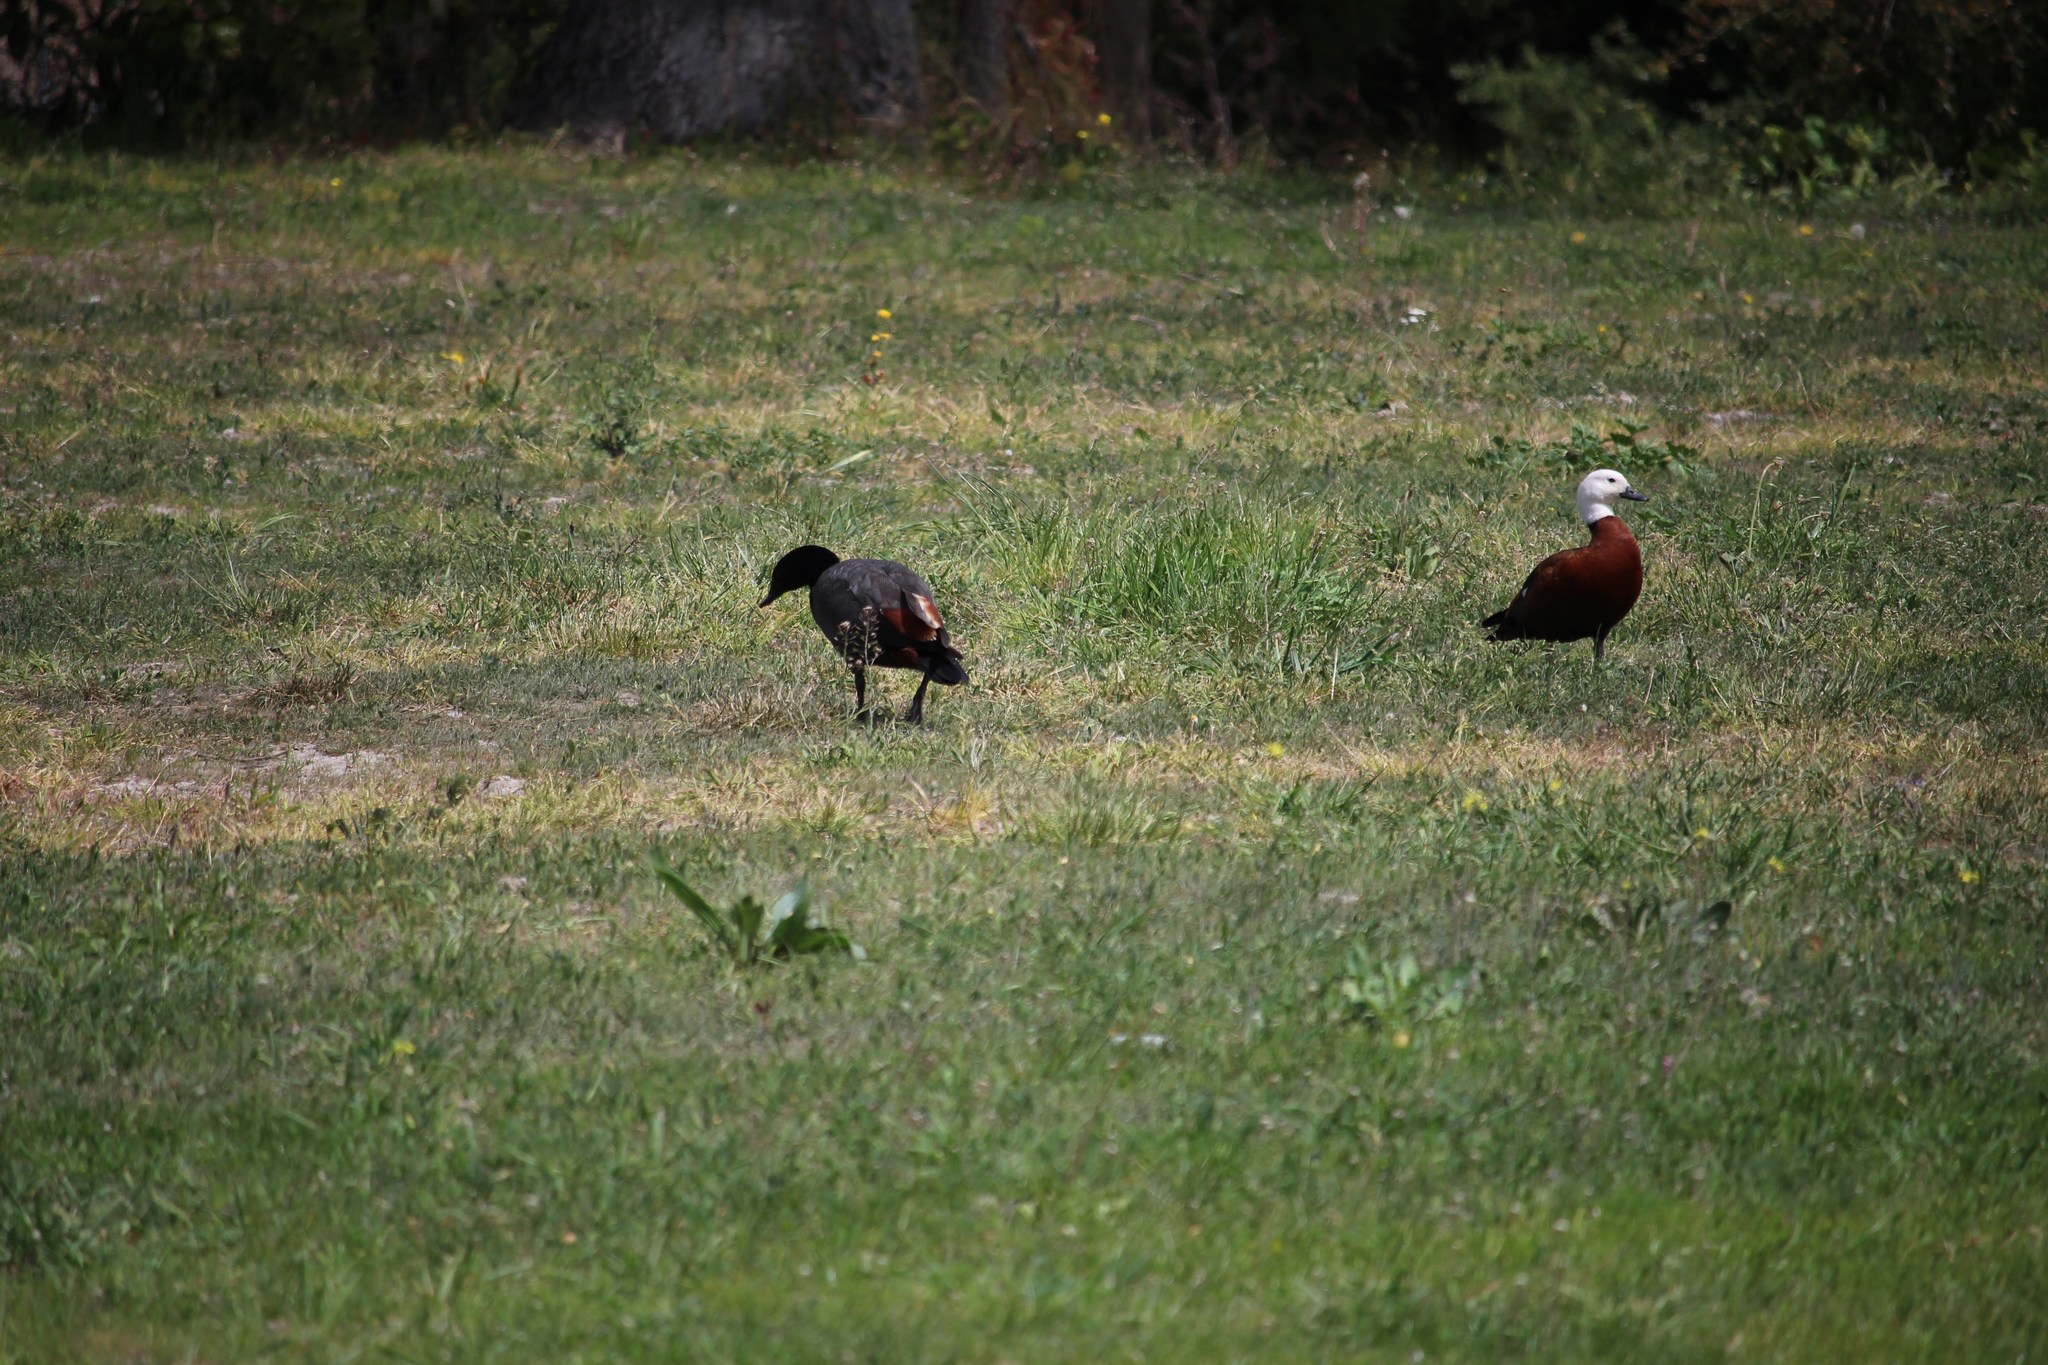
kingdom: Animalia
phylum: Chordata
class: Aves
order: Anseriformes
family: Anatidae
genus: Tadorna
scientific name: Tadorna variegata
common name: Paradise shelduck
